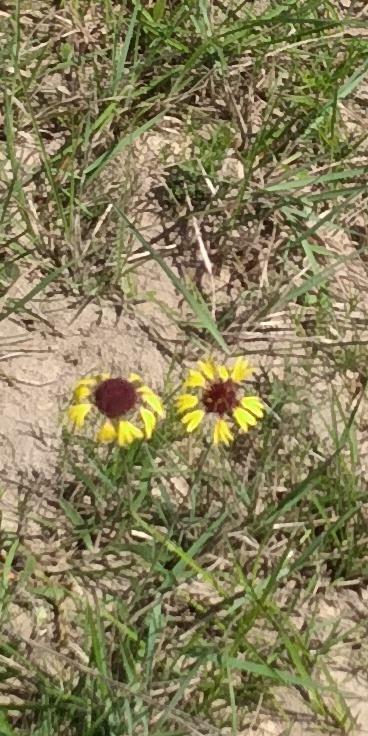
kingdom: Plantae
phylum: Tracheophyta
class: Magnoliopsida
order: Asterales
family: Asteraceae
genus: Gaillardia
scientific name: Gaillardia aestivalis
